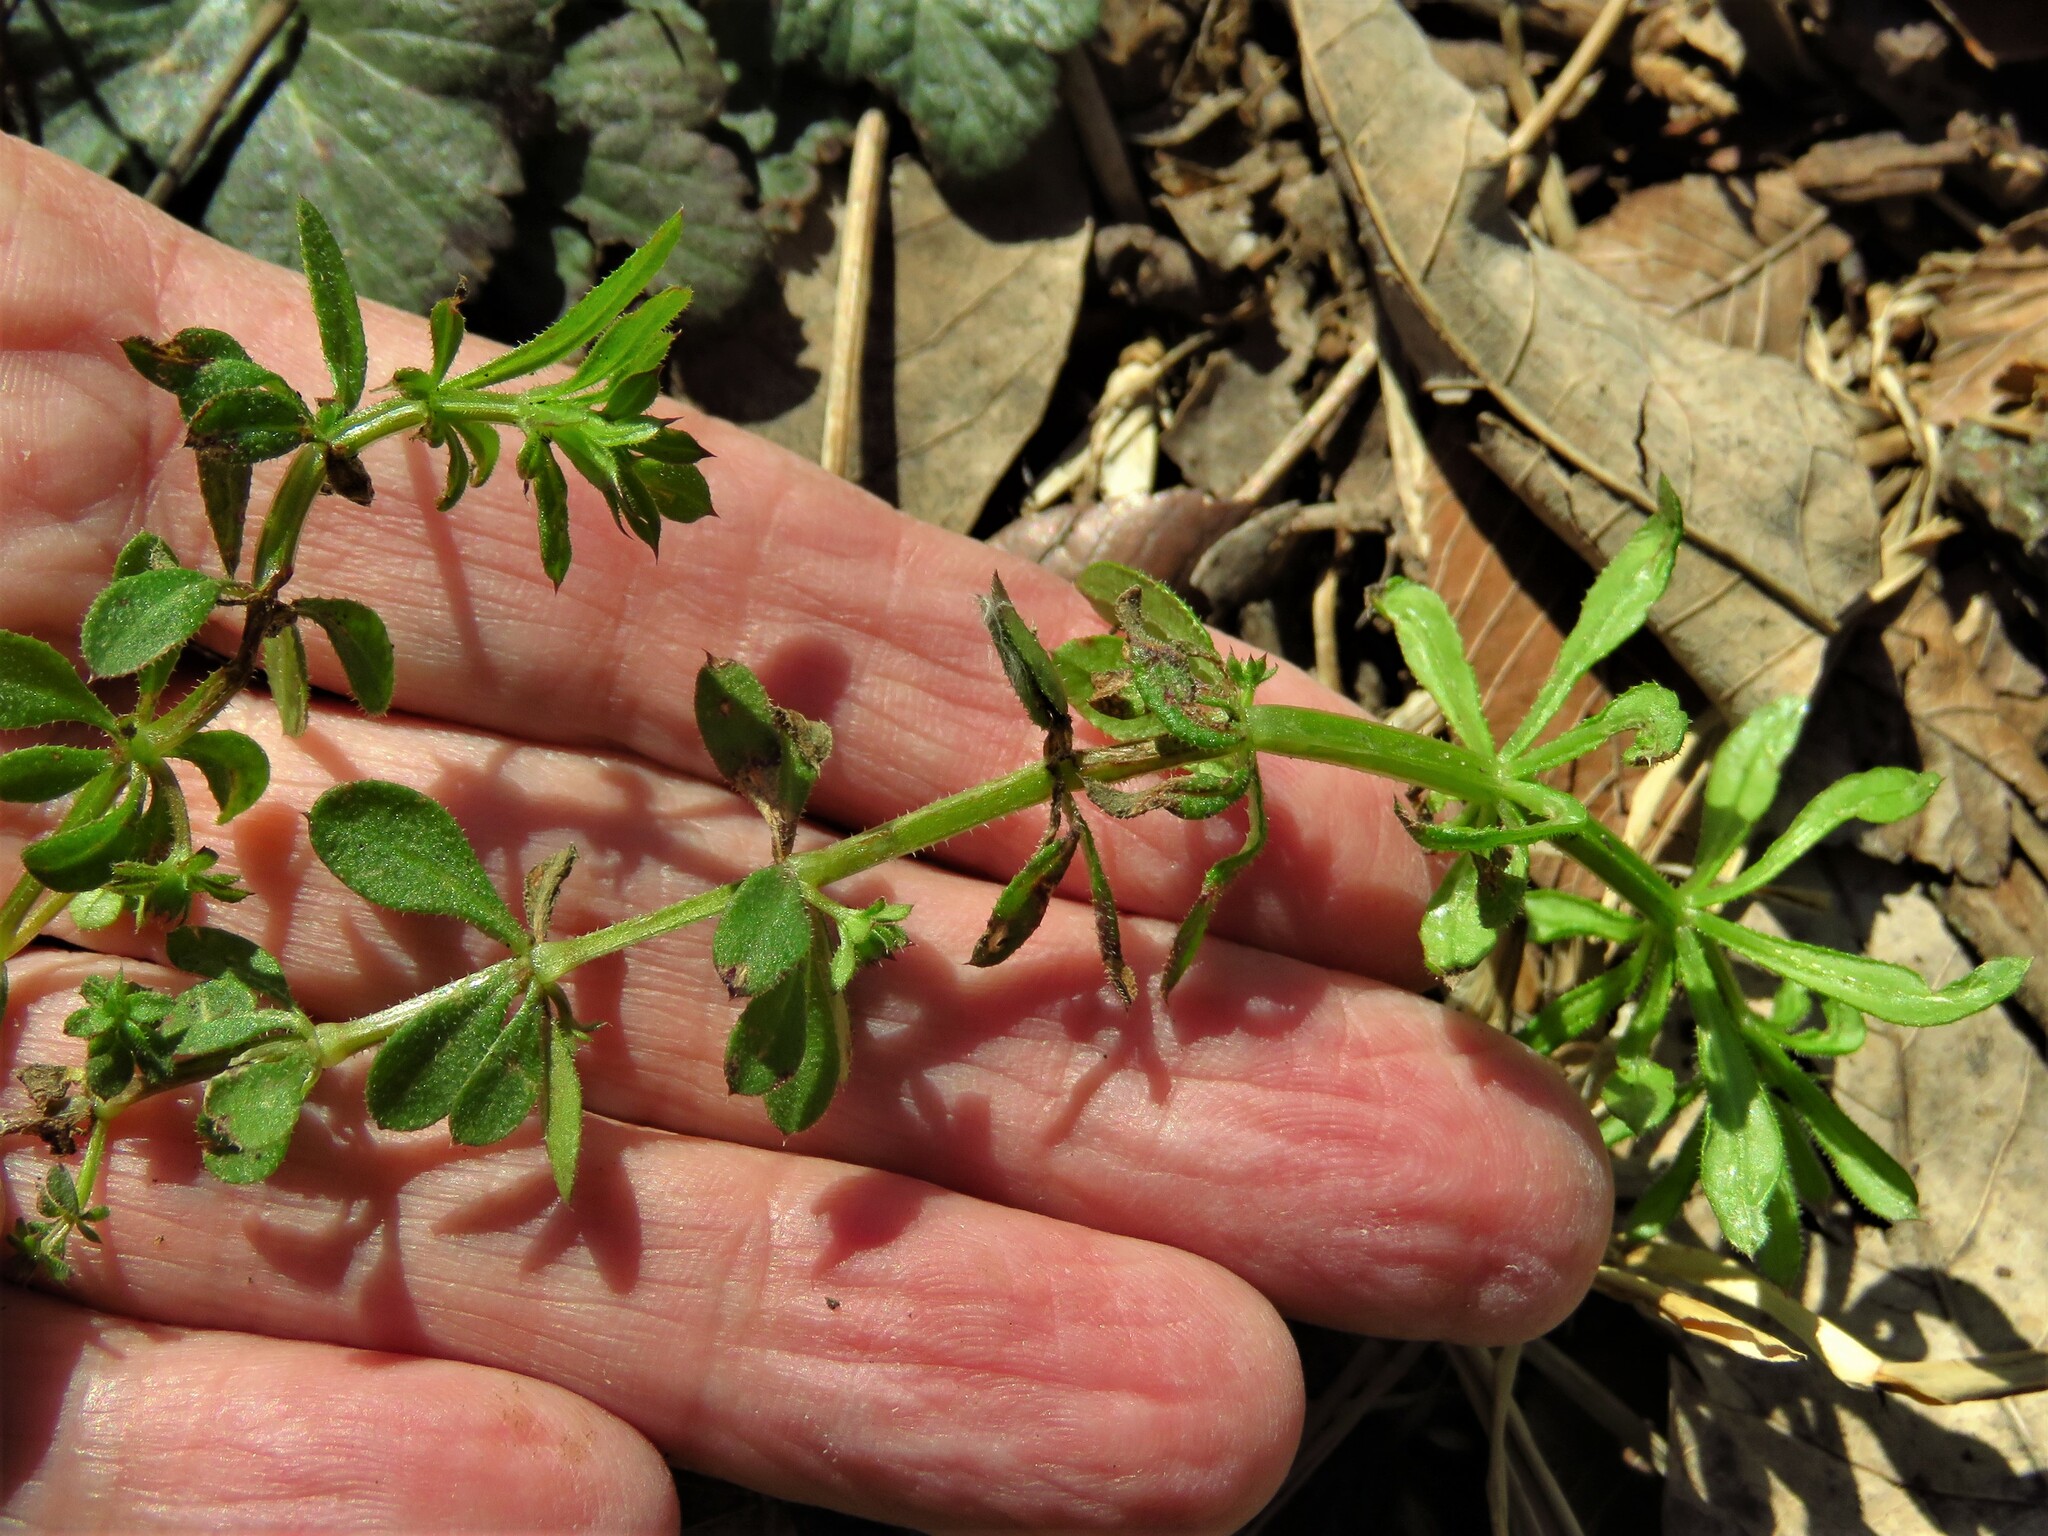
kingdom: Plantae
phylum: Tracheophyta
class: Magnoliopsida
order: Gentianales
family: Rubiaceae
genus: Galium
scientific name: Galium aparine
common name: Cleavers
